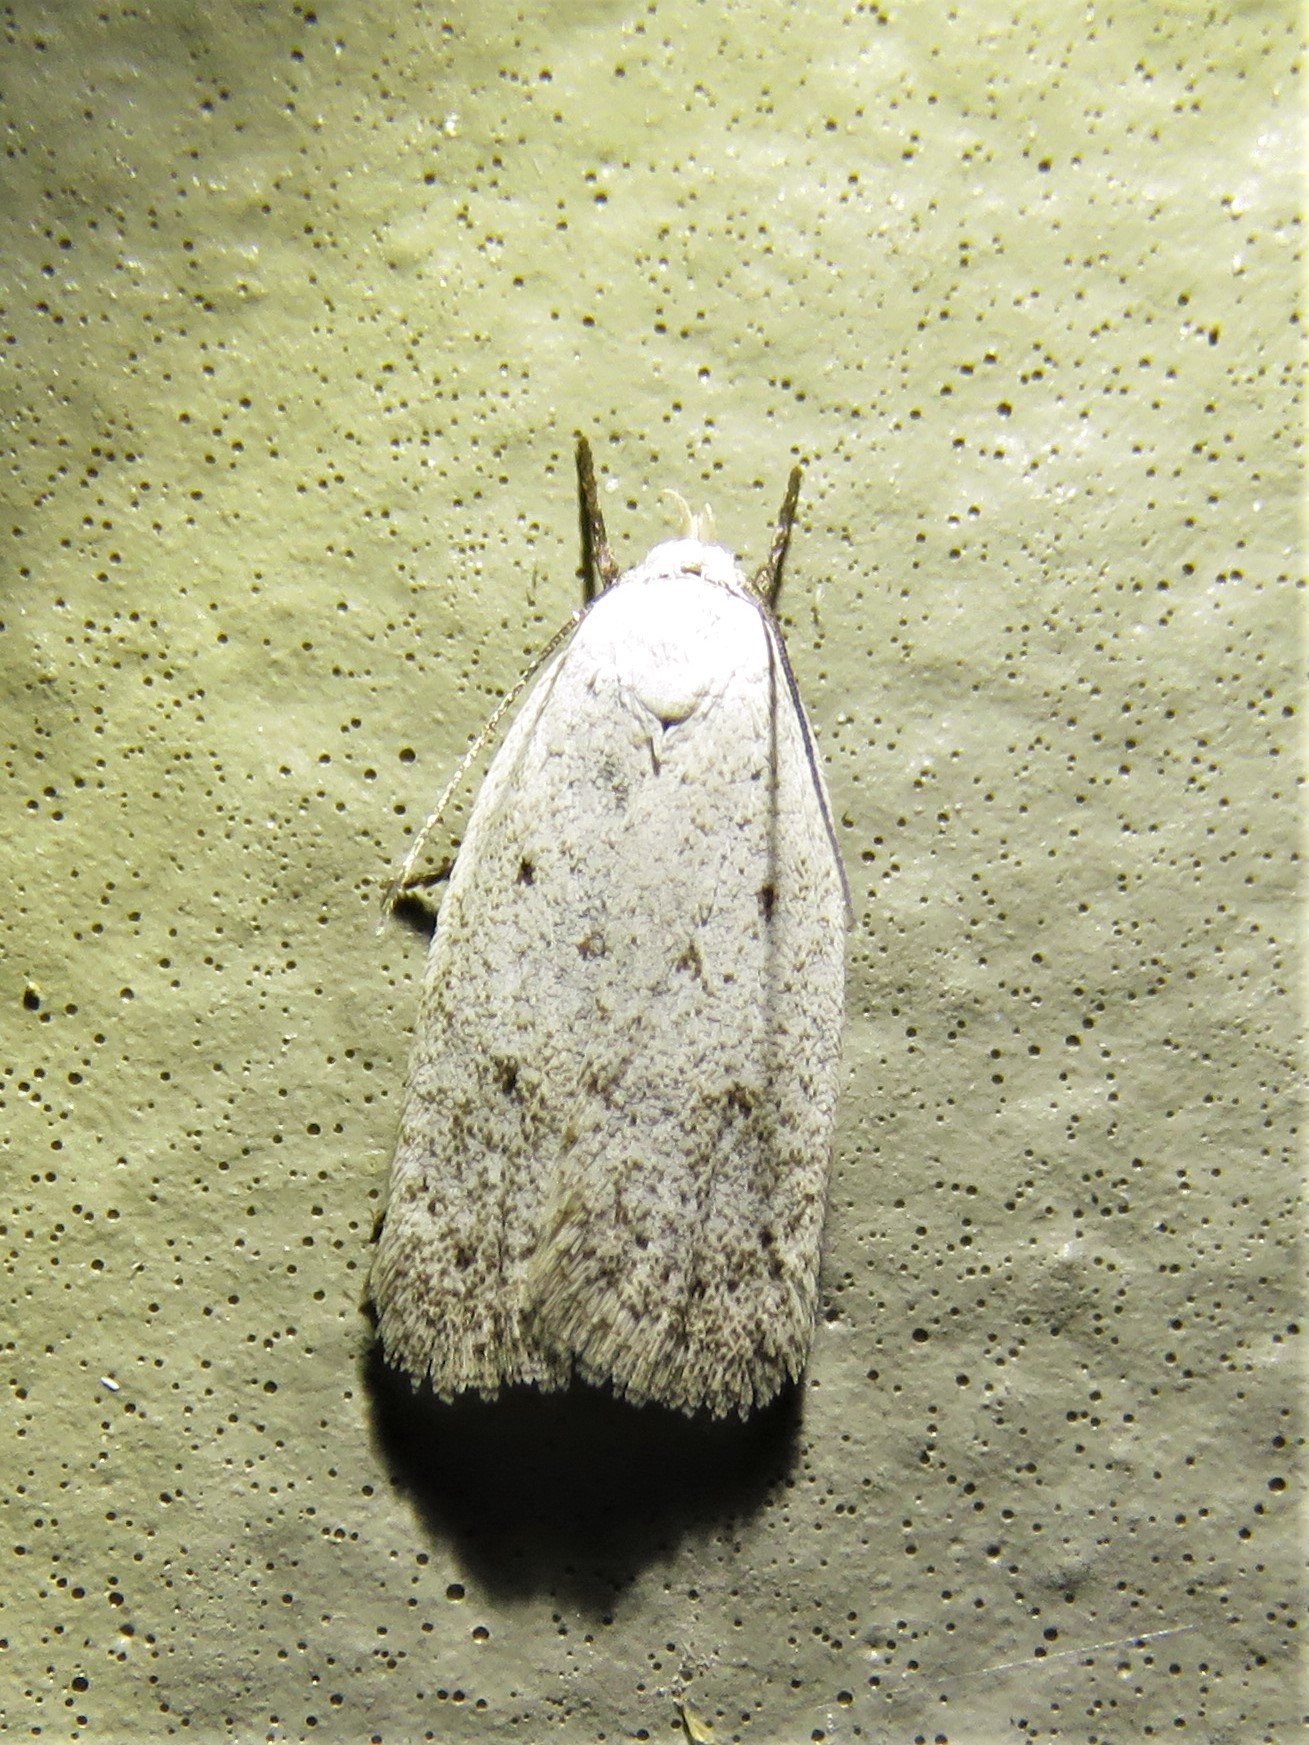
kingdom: Animalia
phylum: Arthropoda
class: Insecta
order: Lepidoptera
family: Oecophoridae
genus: Inga
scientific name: Inga cretacea
